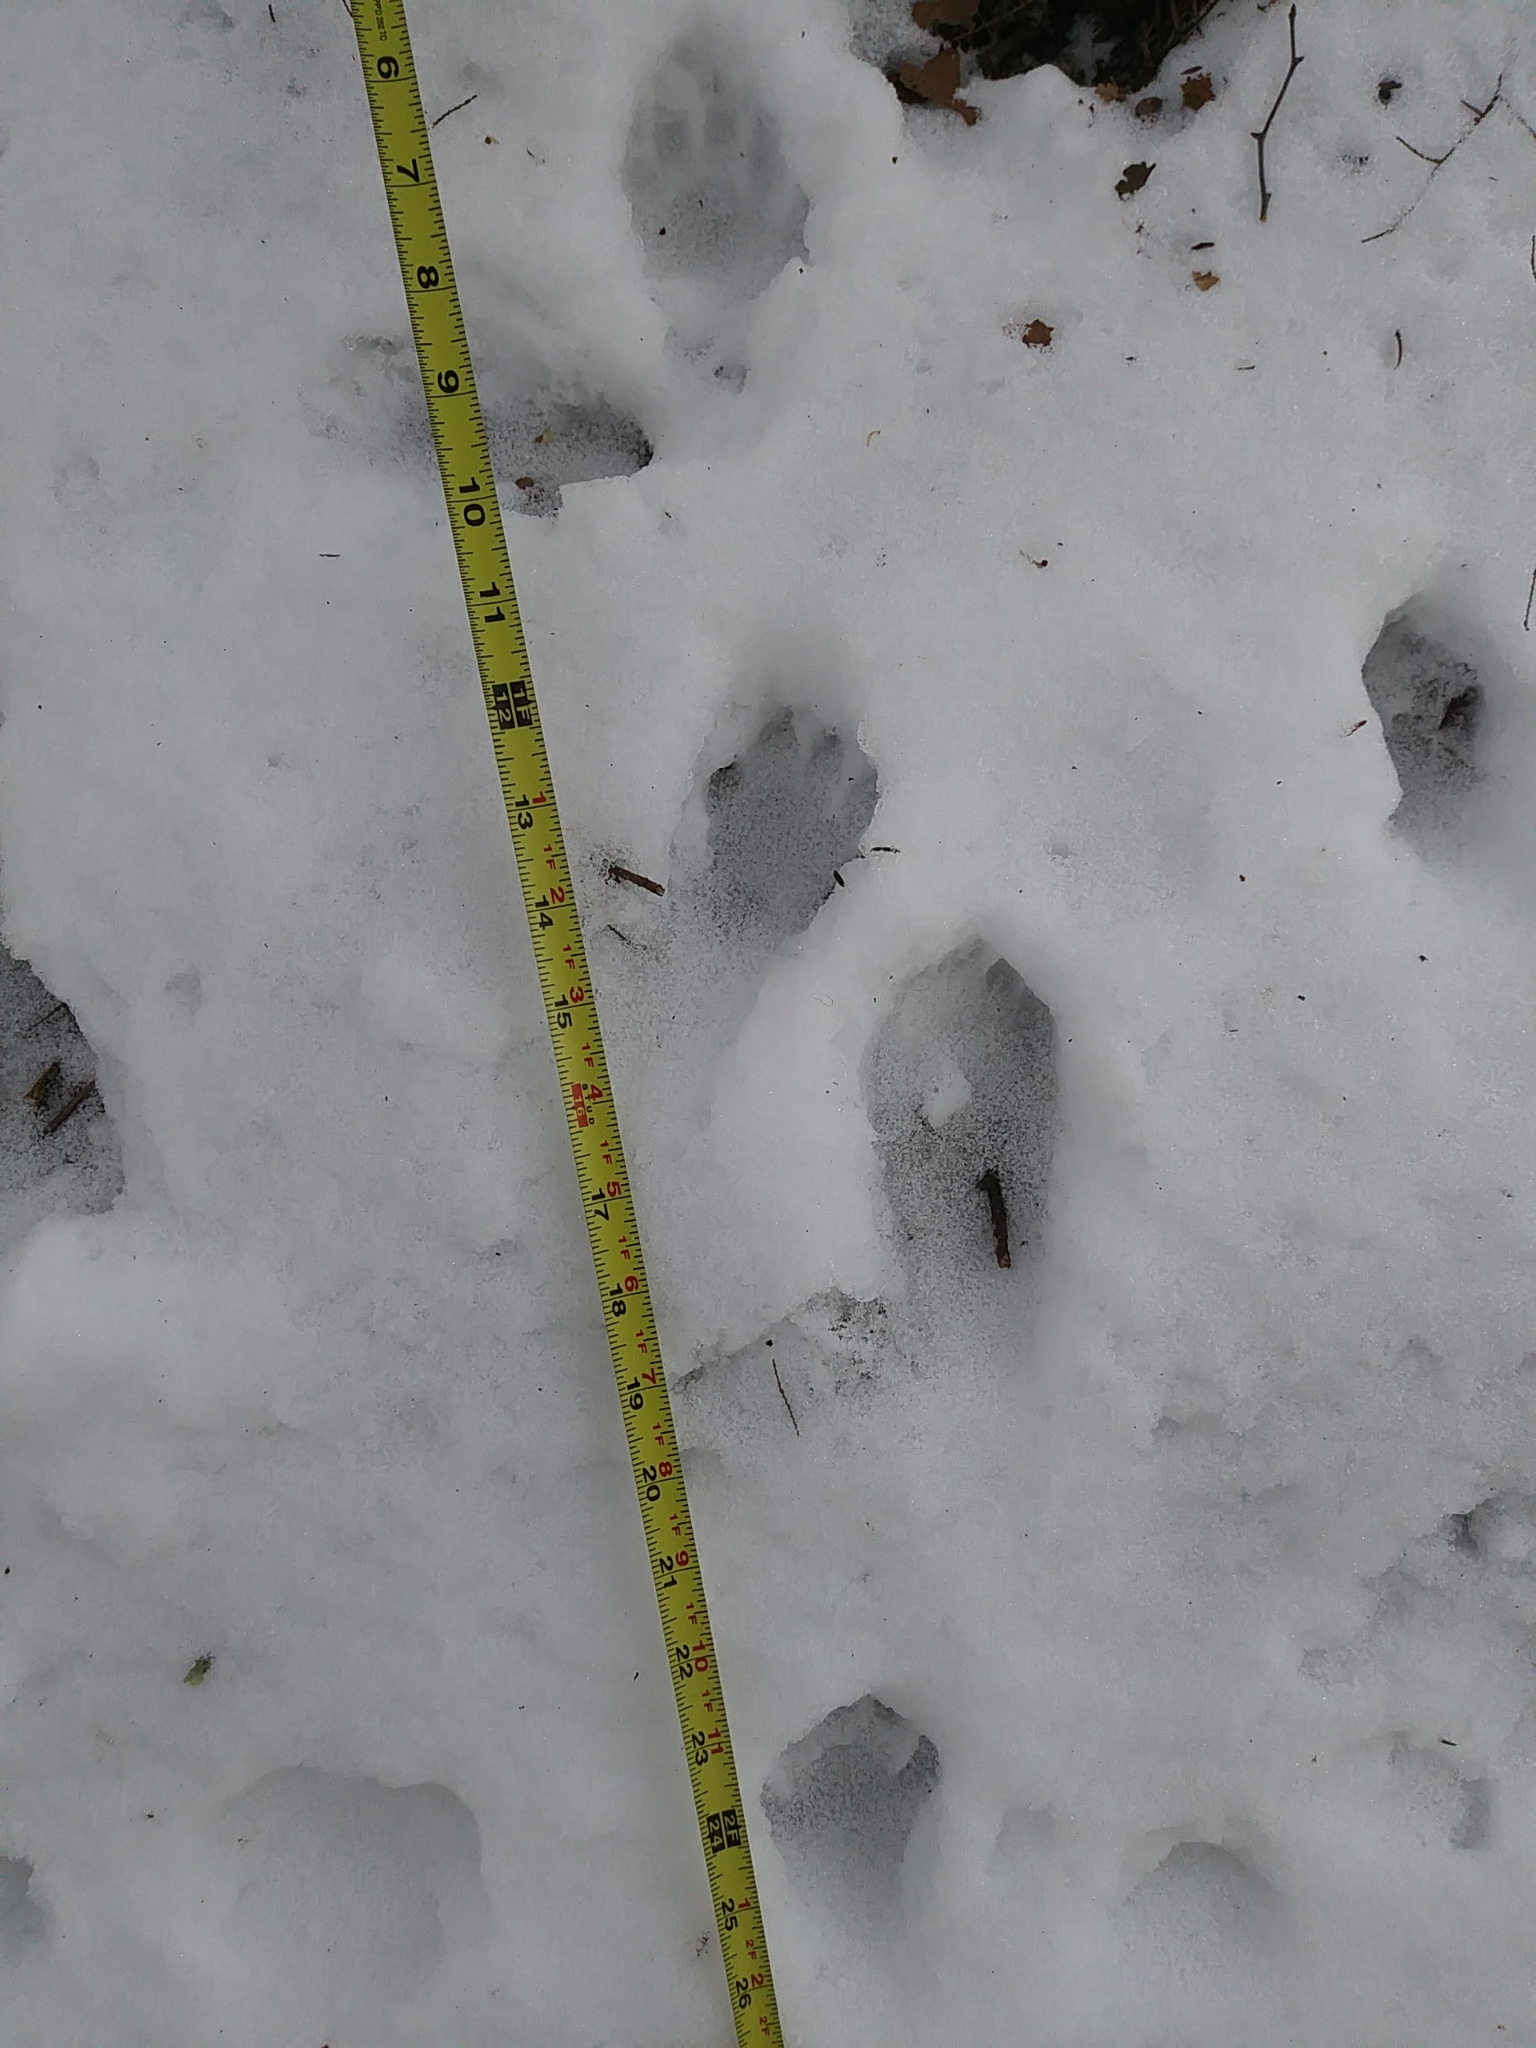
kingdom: Animalia
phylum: Chordata
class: Mammalia
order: Carnivora
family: Procyonidae
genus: Procyon
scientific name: Procyon lotor
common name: Raccoon
